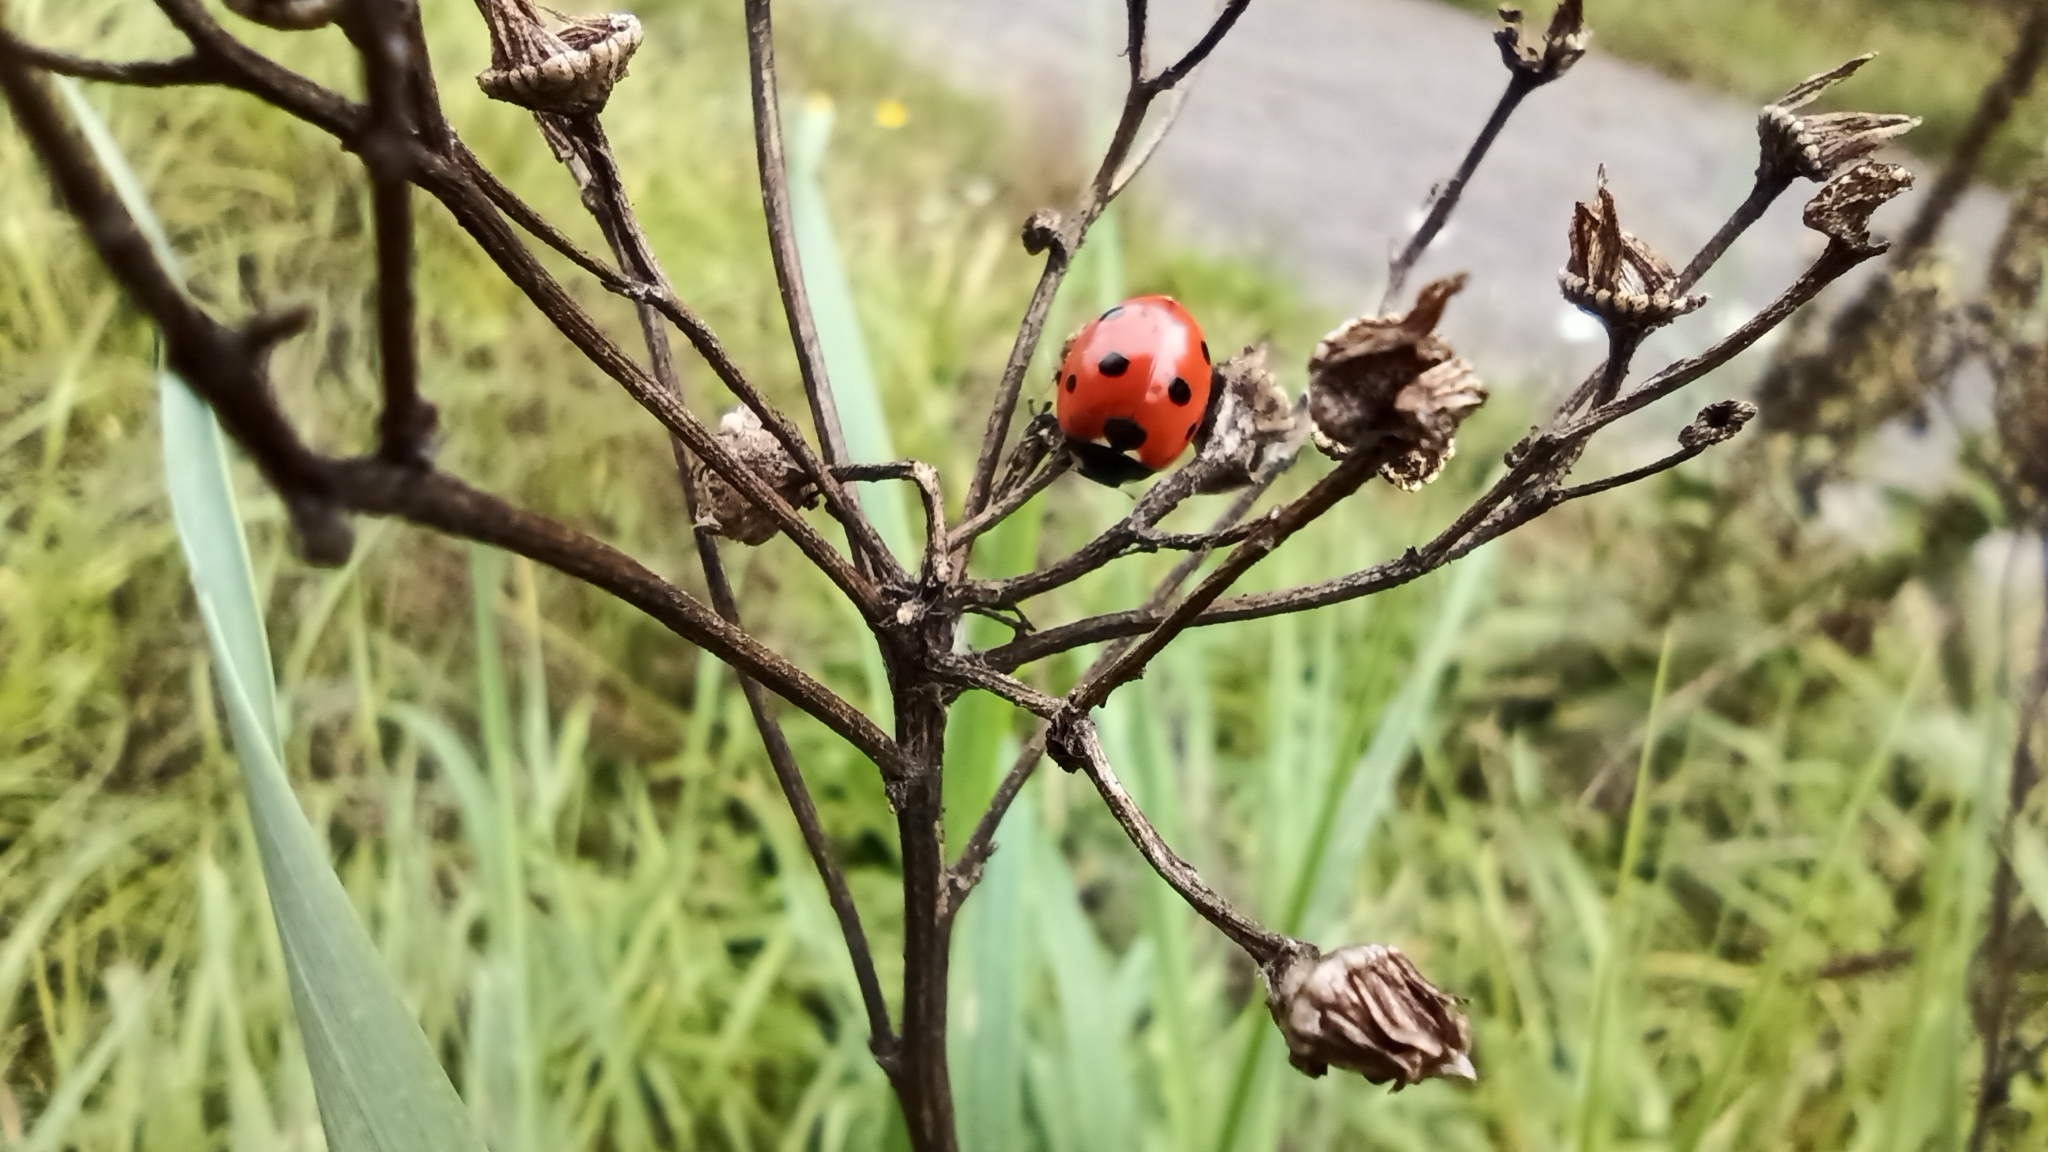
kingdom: Animalia
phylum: Arthropoda
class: Insecta
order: Coleoptera
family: Coccinellidae
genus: Coccinella
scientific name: Coccinella septempunctata
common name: Sevenspotted lady beetle
